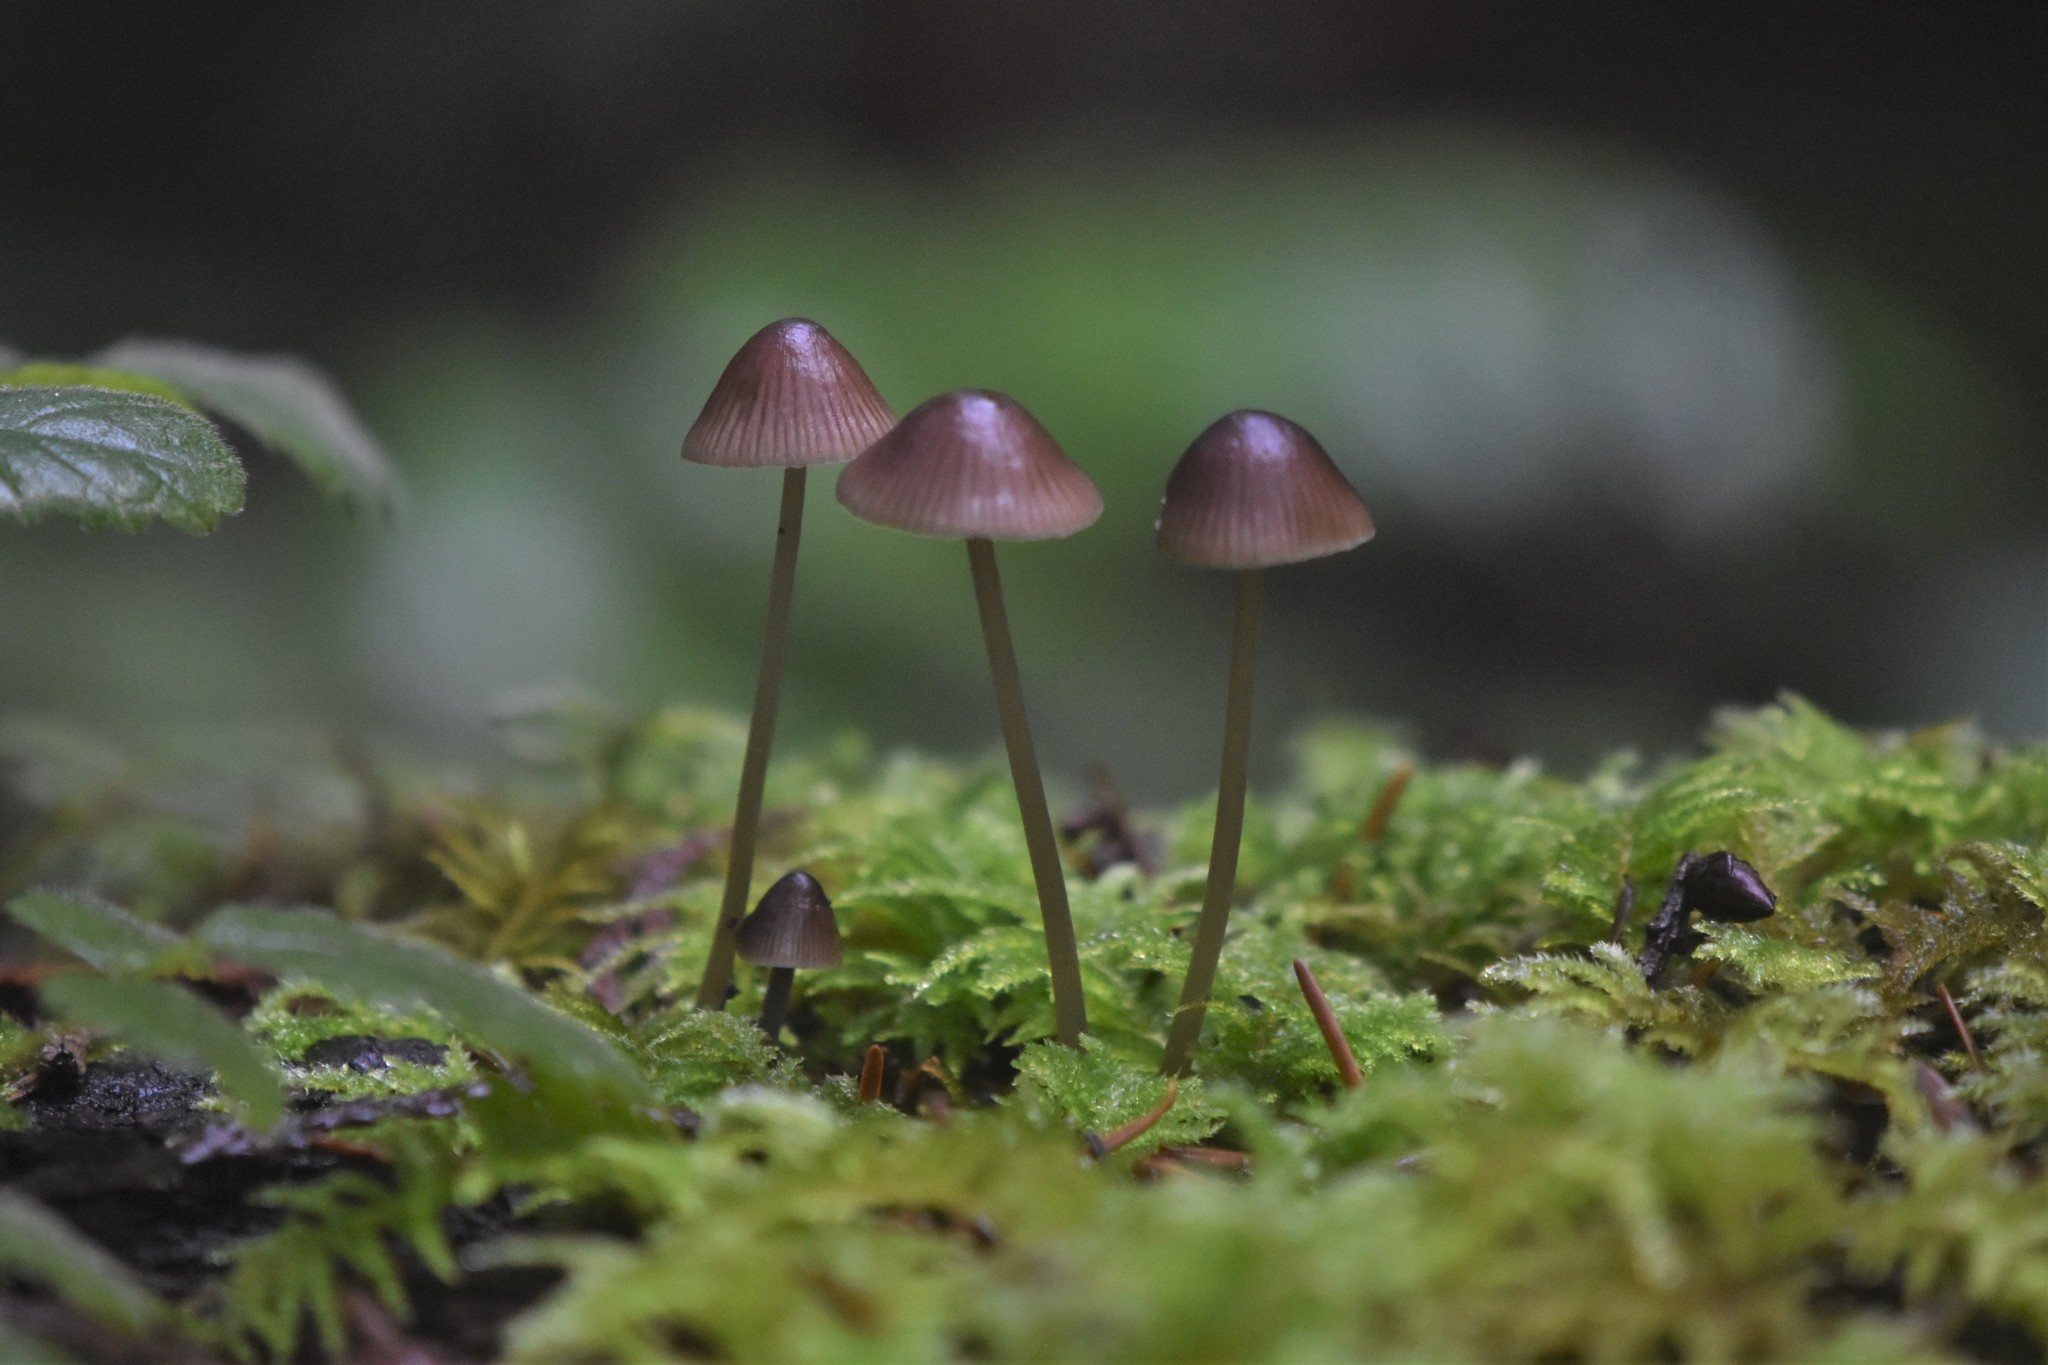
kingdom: Fungi
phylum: Basidiomycota
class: Agaricomycetes
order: Agaricales
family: Mycenaceae
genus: Mycena
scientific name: Mycena purpureofusca
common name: Purple edge bonnet
